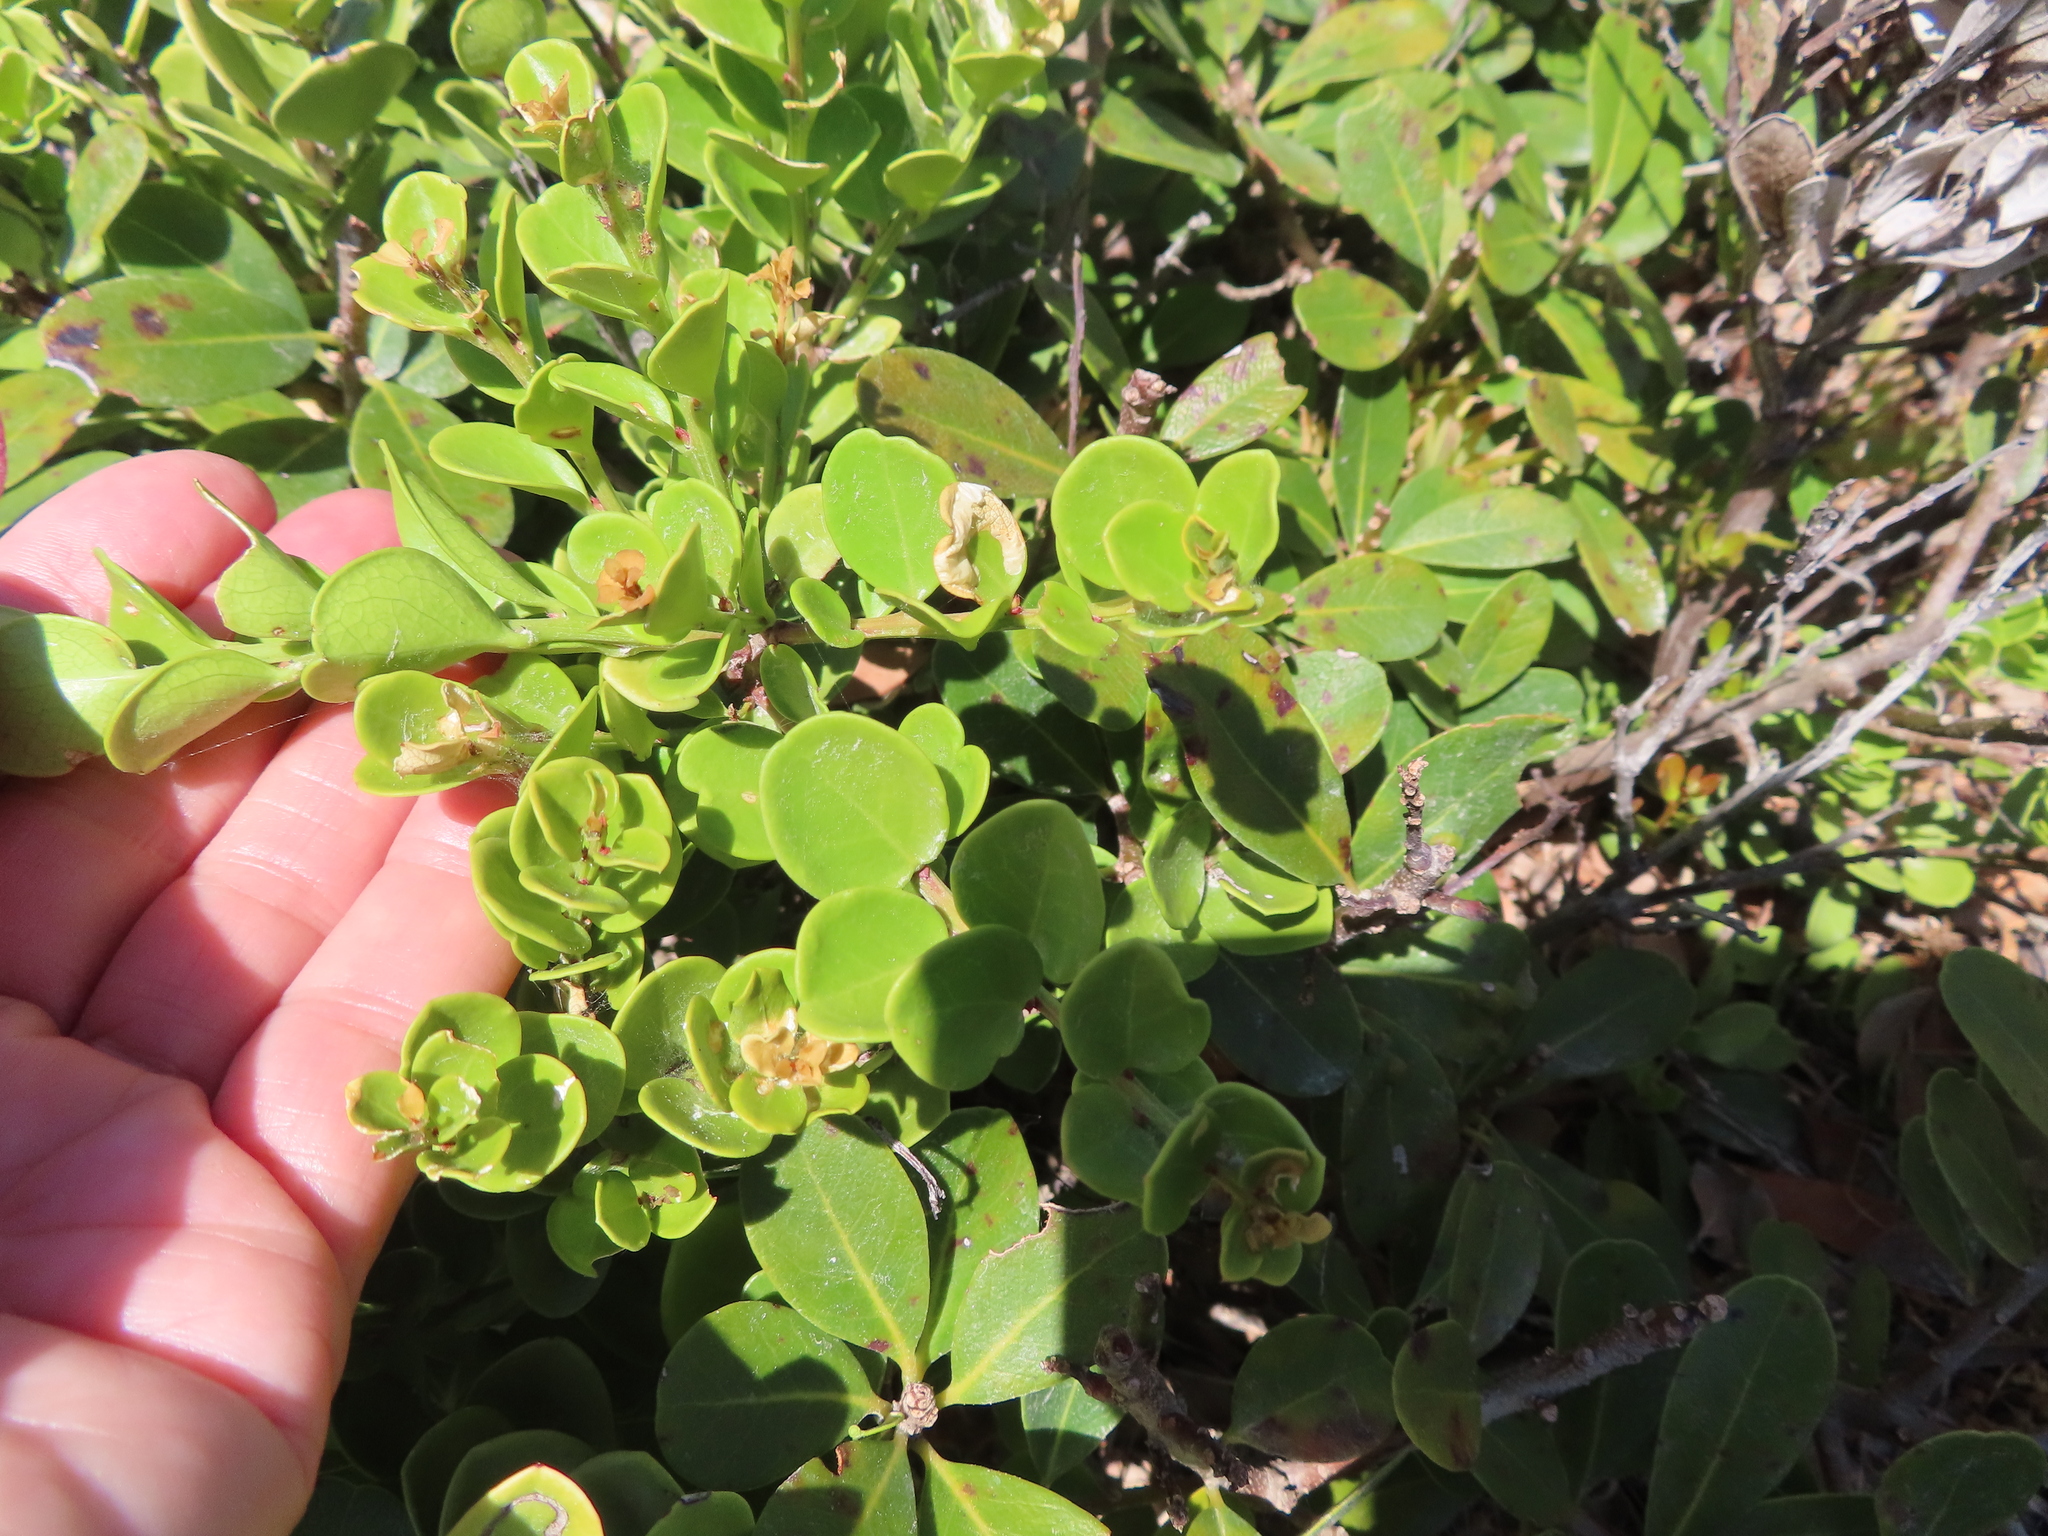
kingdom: Plantae
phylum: Tracheophyta
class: Magnoliopsida
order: Celastrales
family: Celastraceae
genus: Gymnosporia
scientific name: Gymnosporia lucida
